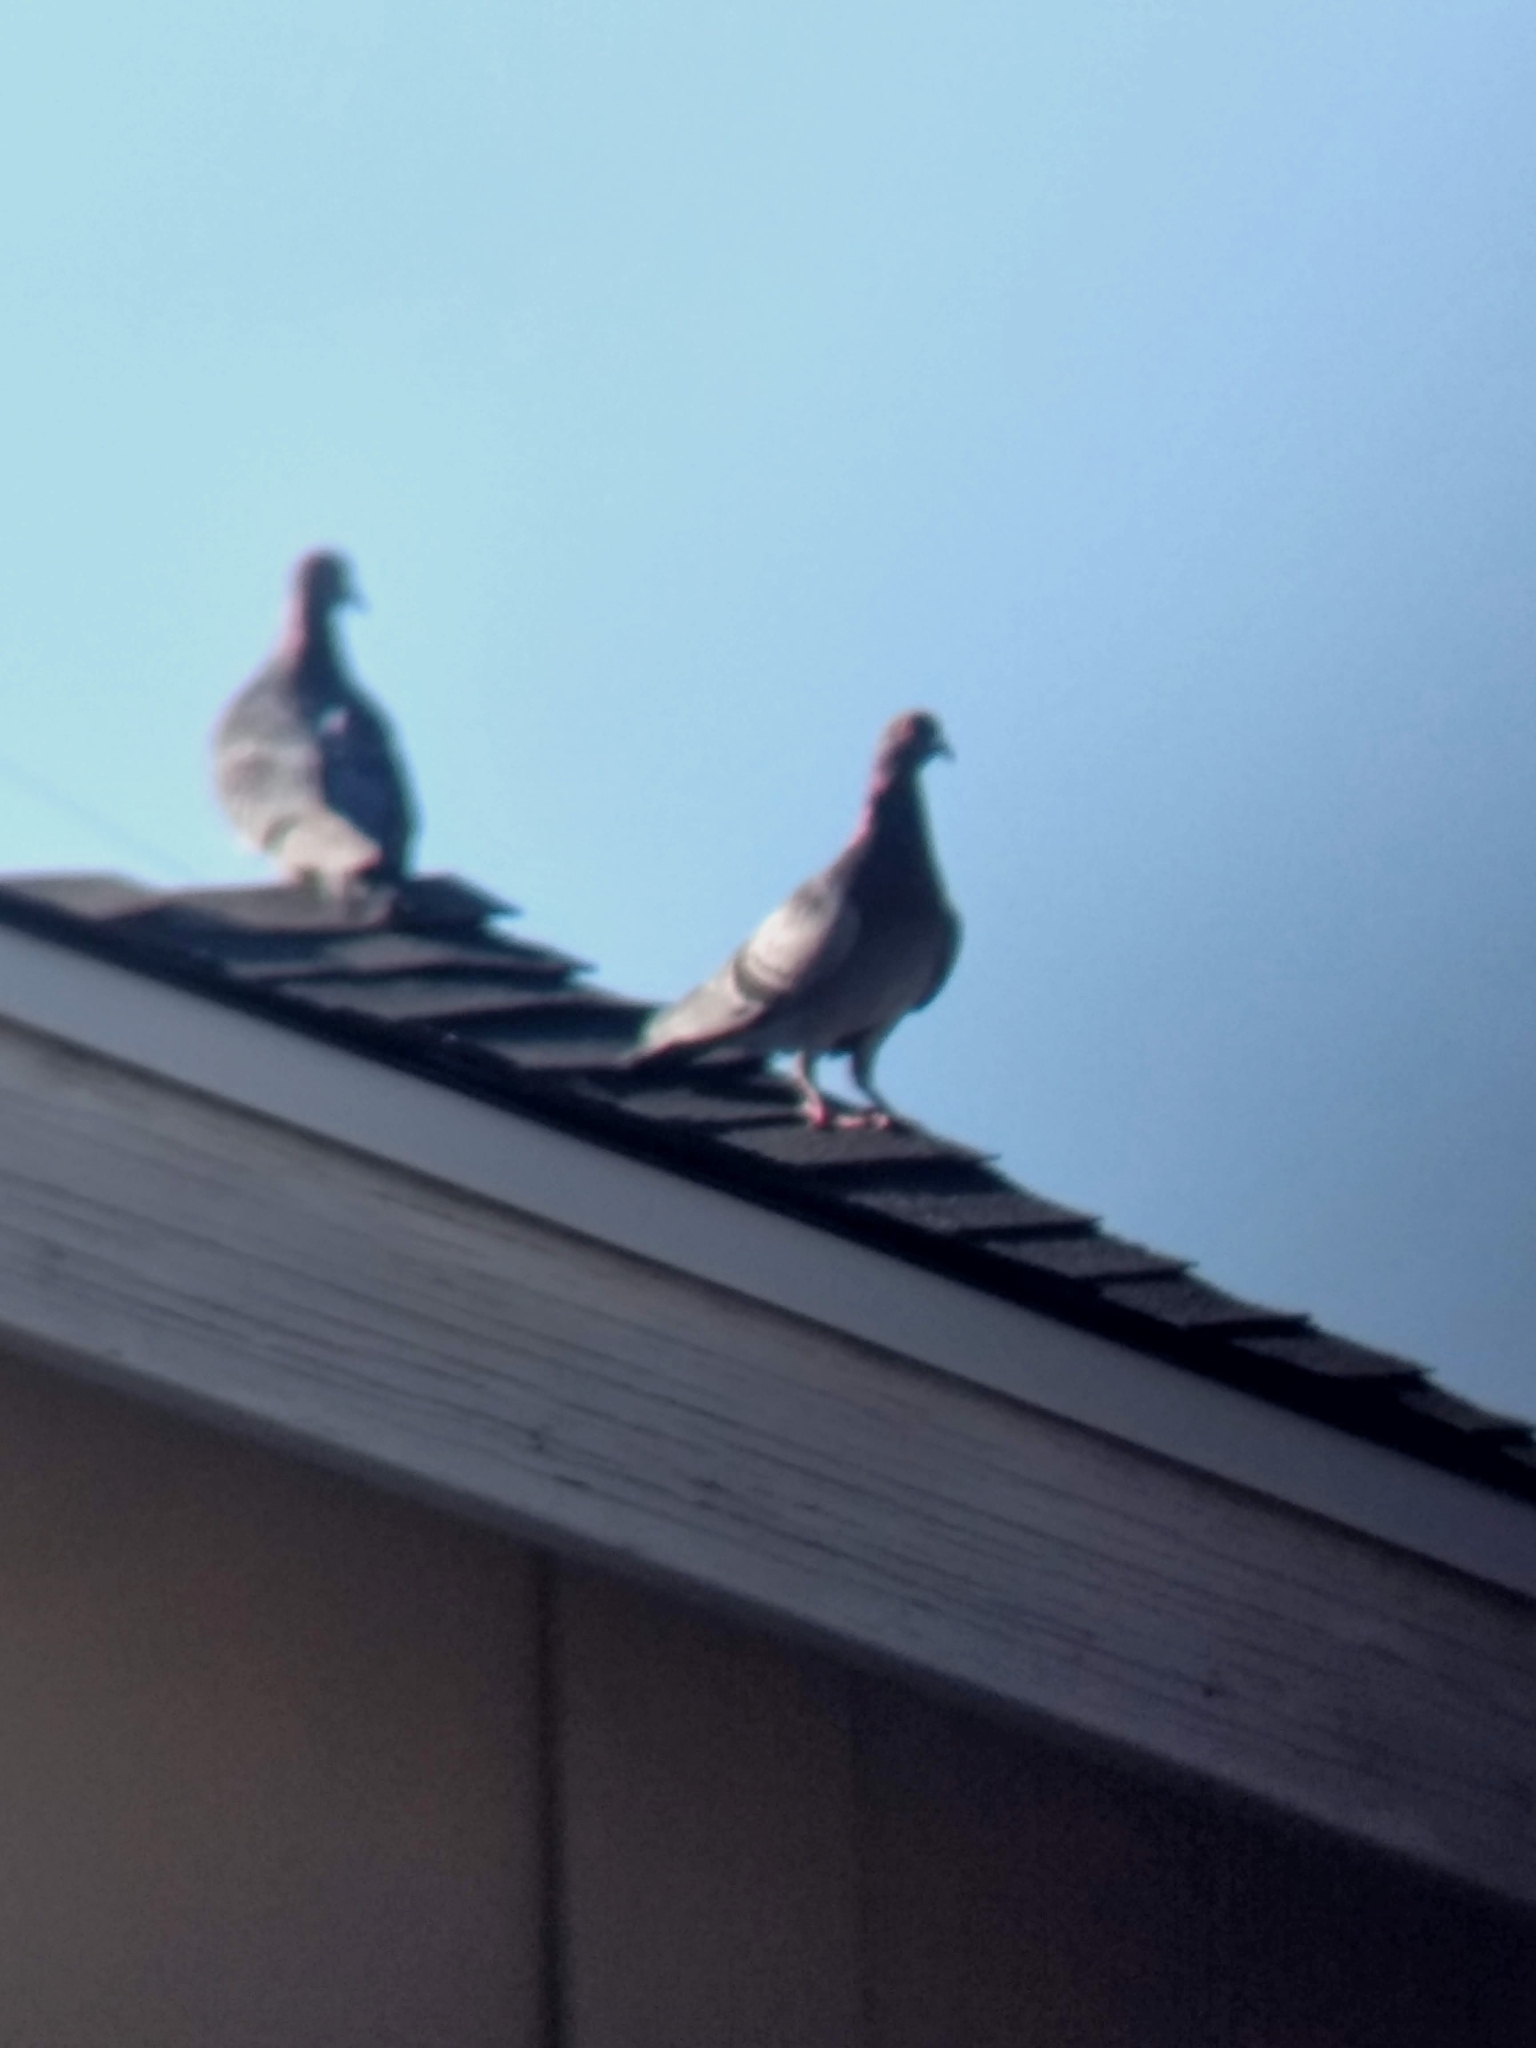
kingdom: Animalia
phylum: Chordata
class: Aves
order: Columbiformes
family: Columbidae
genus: Columba
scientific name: Columba livia
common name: Rock pigeon
